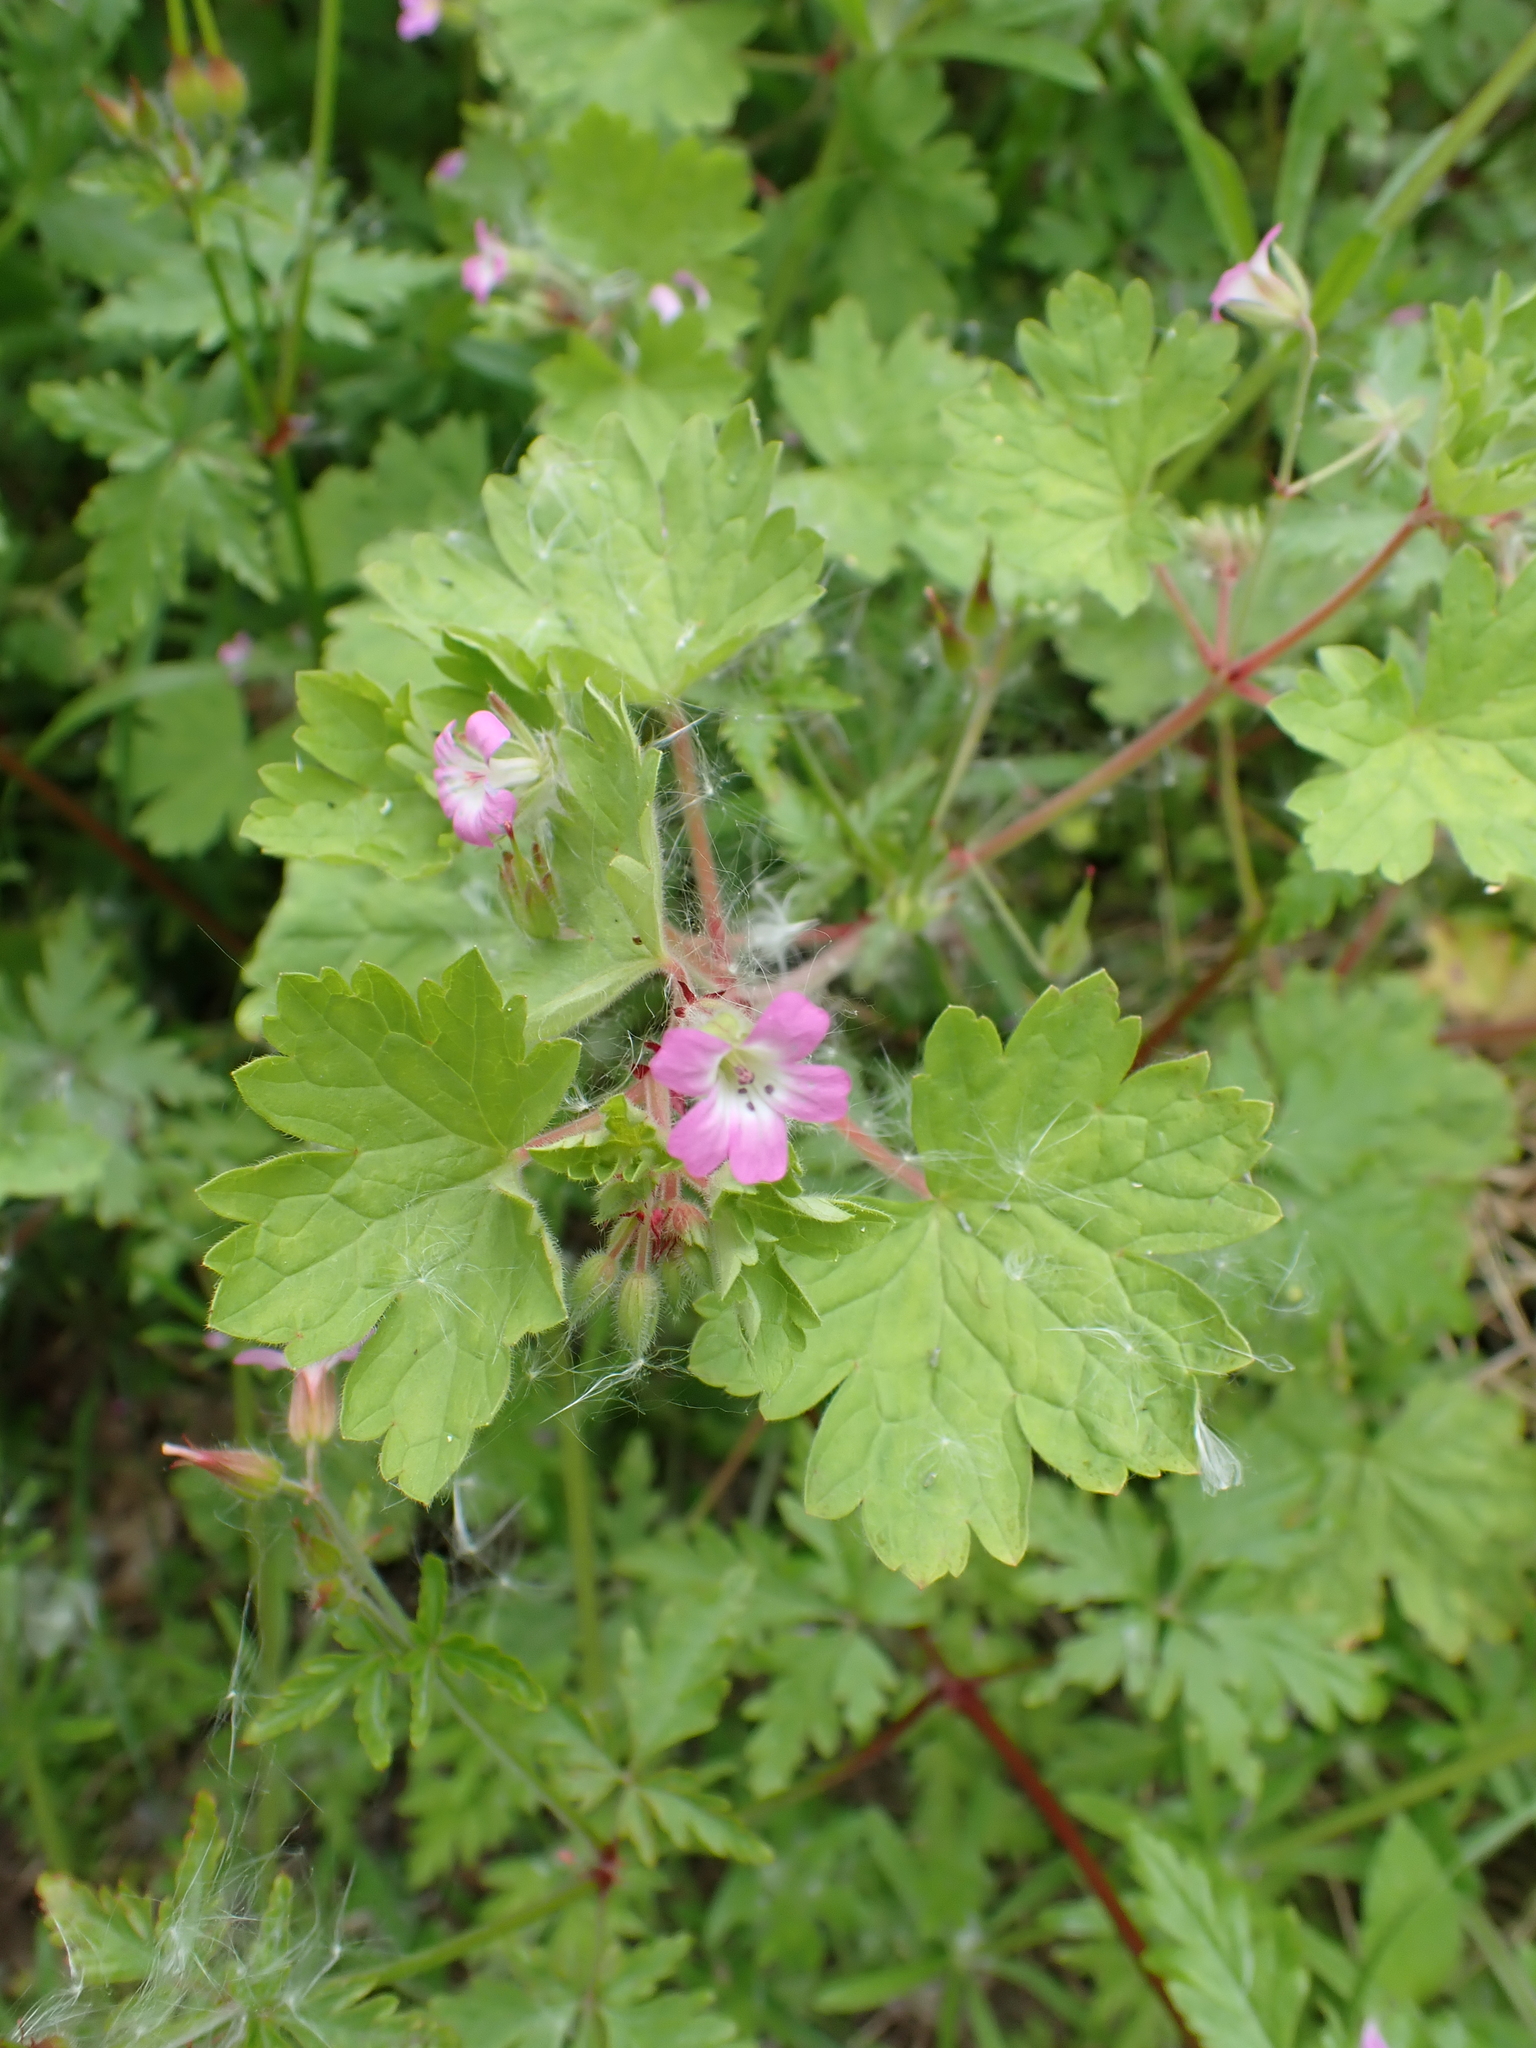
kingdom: Plantae
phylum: Tracheophyta
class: Magnoliopsida
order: Geraniales
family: Geraniaceae
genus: Geranium
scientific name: Geranium rotundifolium
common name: Round-leaved crane's-bill
